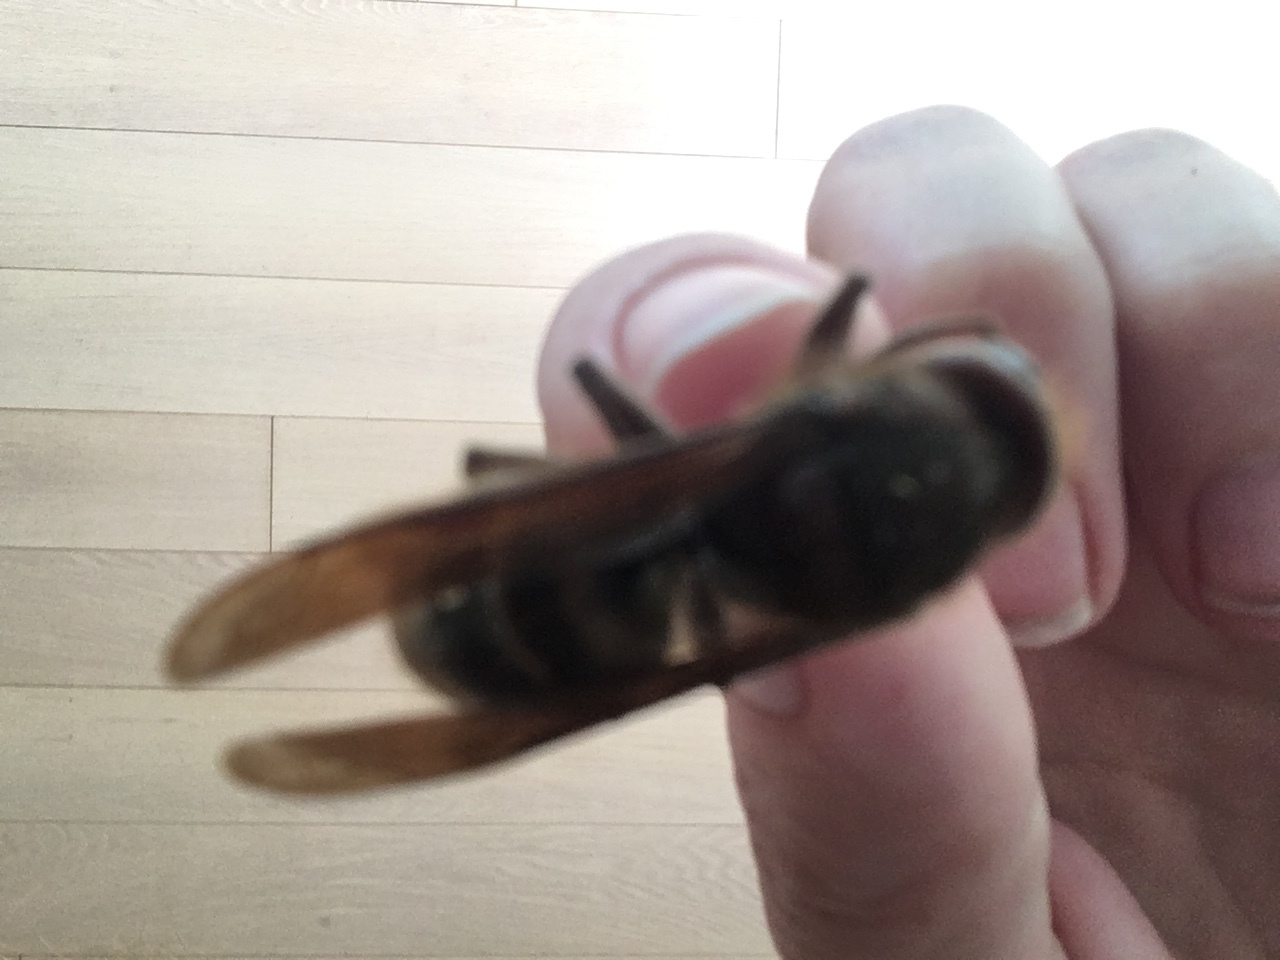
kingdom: Animalia
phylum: Arthropoda
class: Insecta
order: Hymenoptera
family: Vespidae
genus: Vespa
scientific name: Vespa crabro
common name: Hornet
